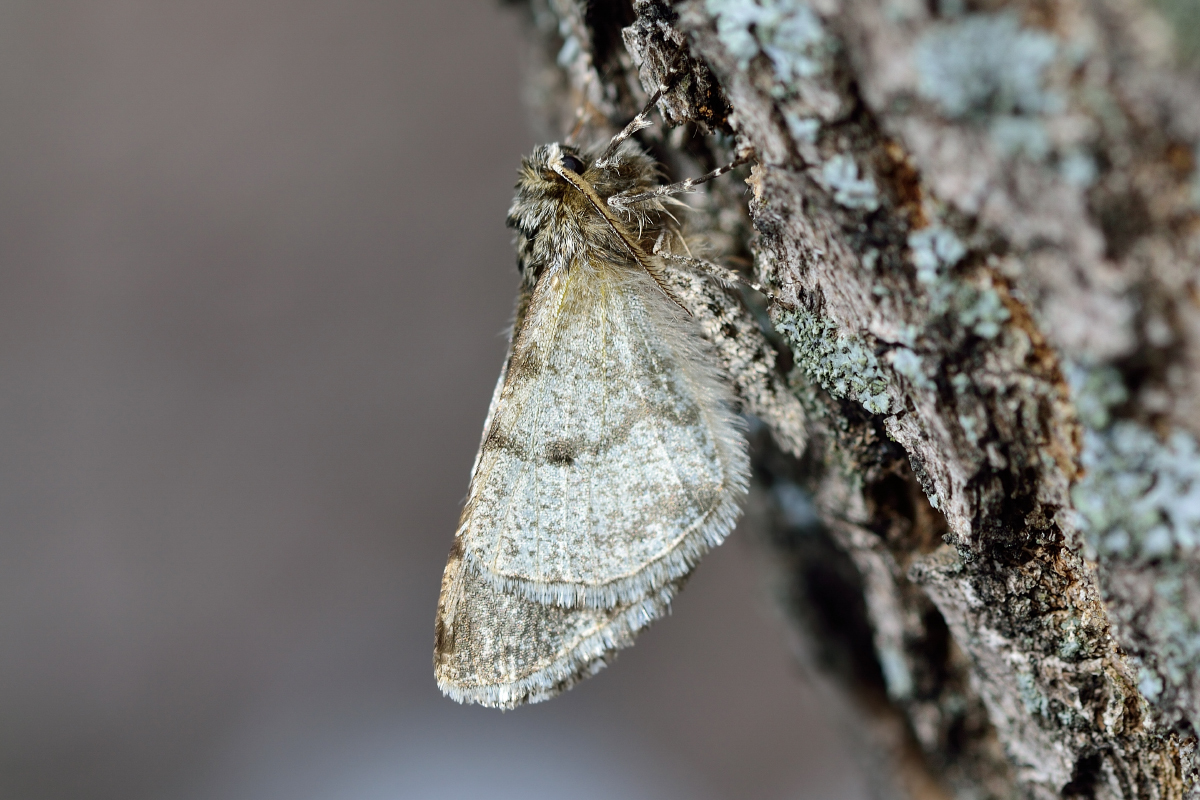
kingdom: Animalia
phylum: Arthropoda
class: Insecta
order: Lepidoptera
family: Geometridae
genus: Phigalia
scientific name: Phigalia pilosaria
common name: Pale brindled beauty
